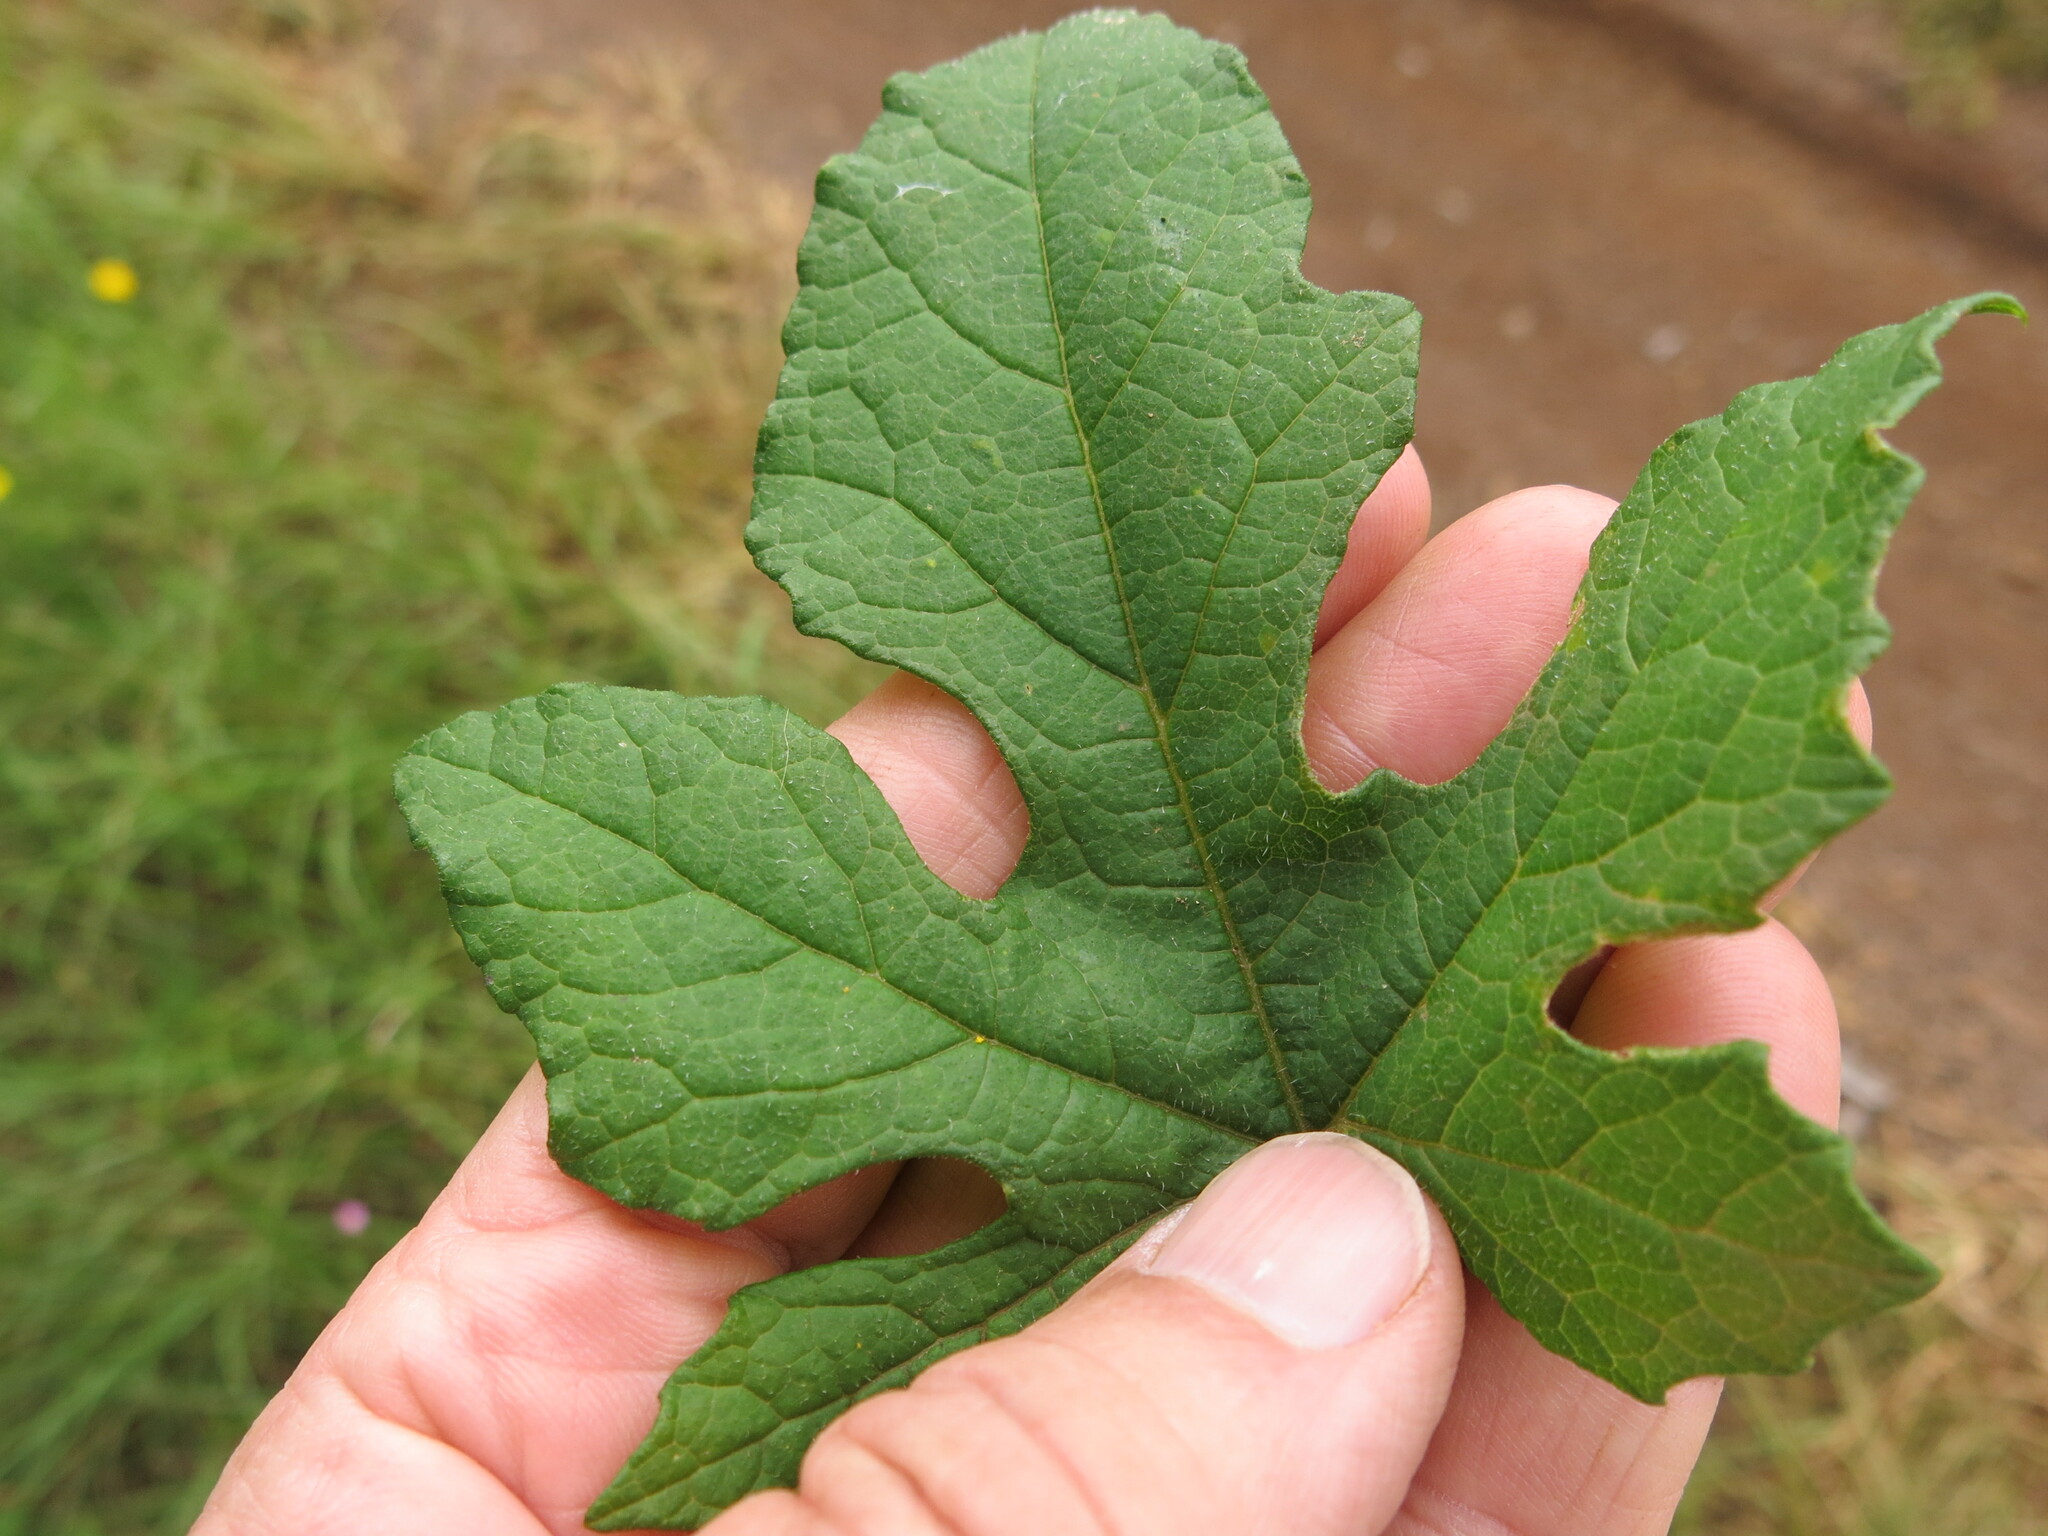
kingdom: Plantae
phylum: Tracheophyta
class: Magnoliopsida
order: Cucurbitales
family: Cucurbitaceae
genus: Coccinia
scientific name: Coccinia adoensis
